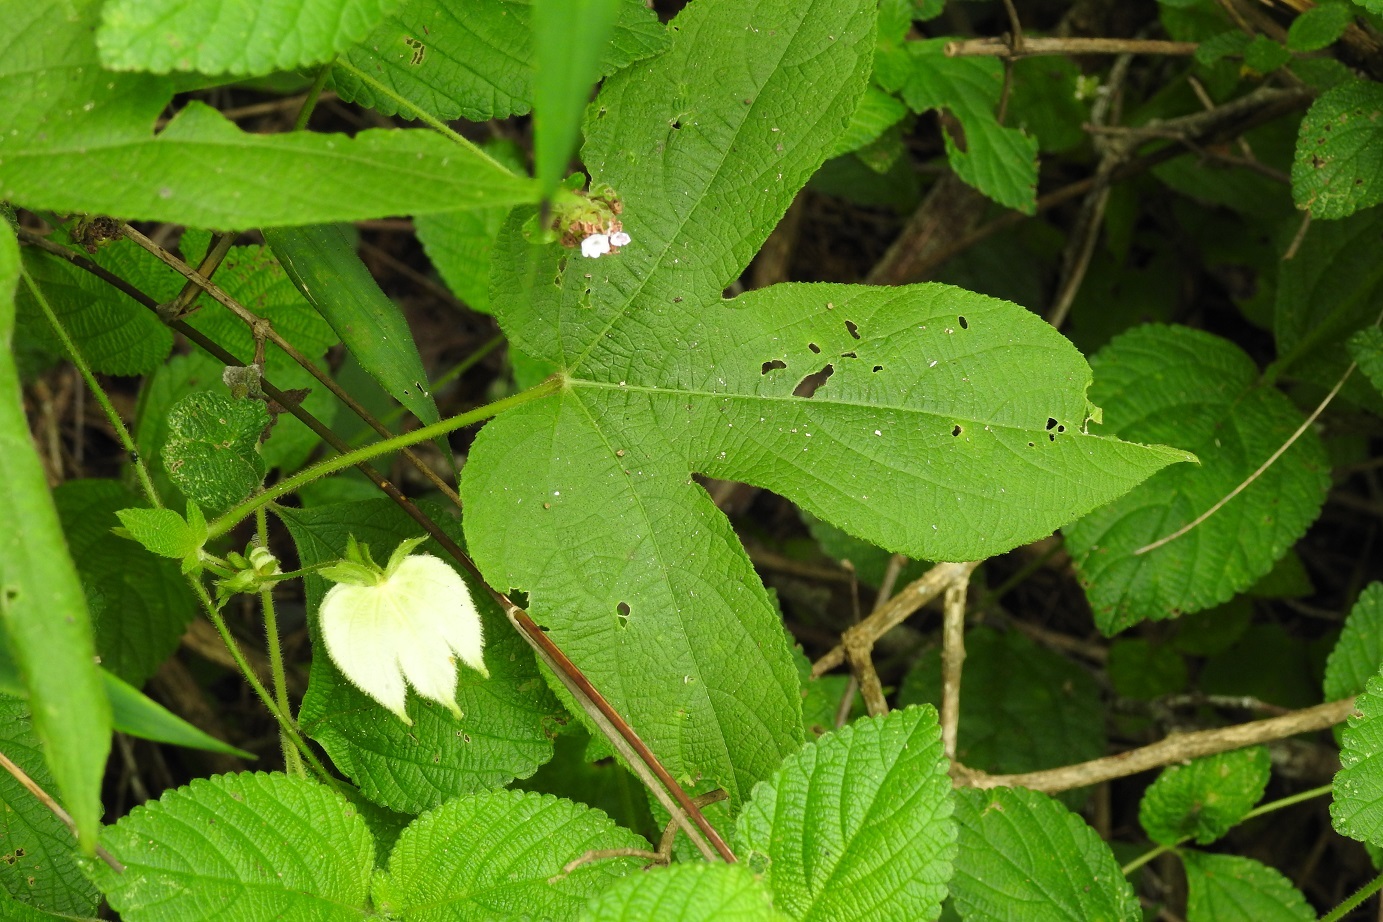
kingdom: Plantae
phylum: Tracheophyta
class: Magnoliopsida
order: Malpighiales
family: Euphorbiaceae
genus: Dalechampia
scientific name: Dalechampia scandens
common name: Spurgecreeper
